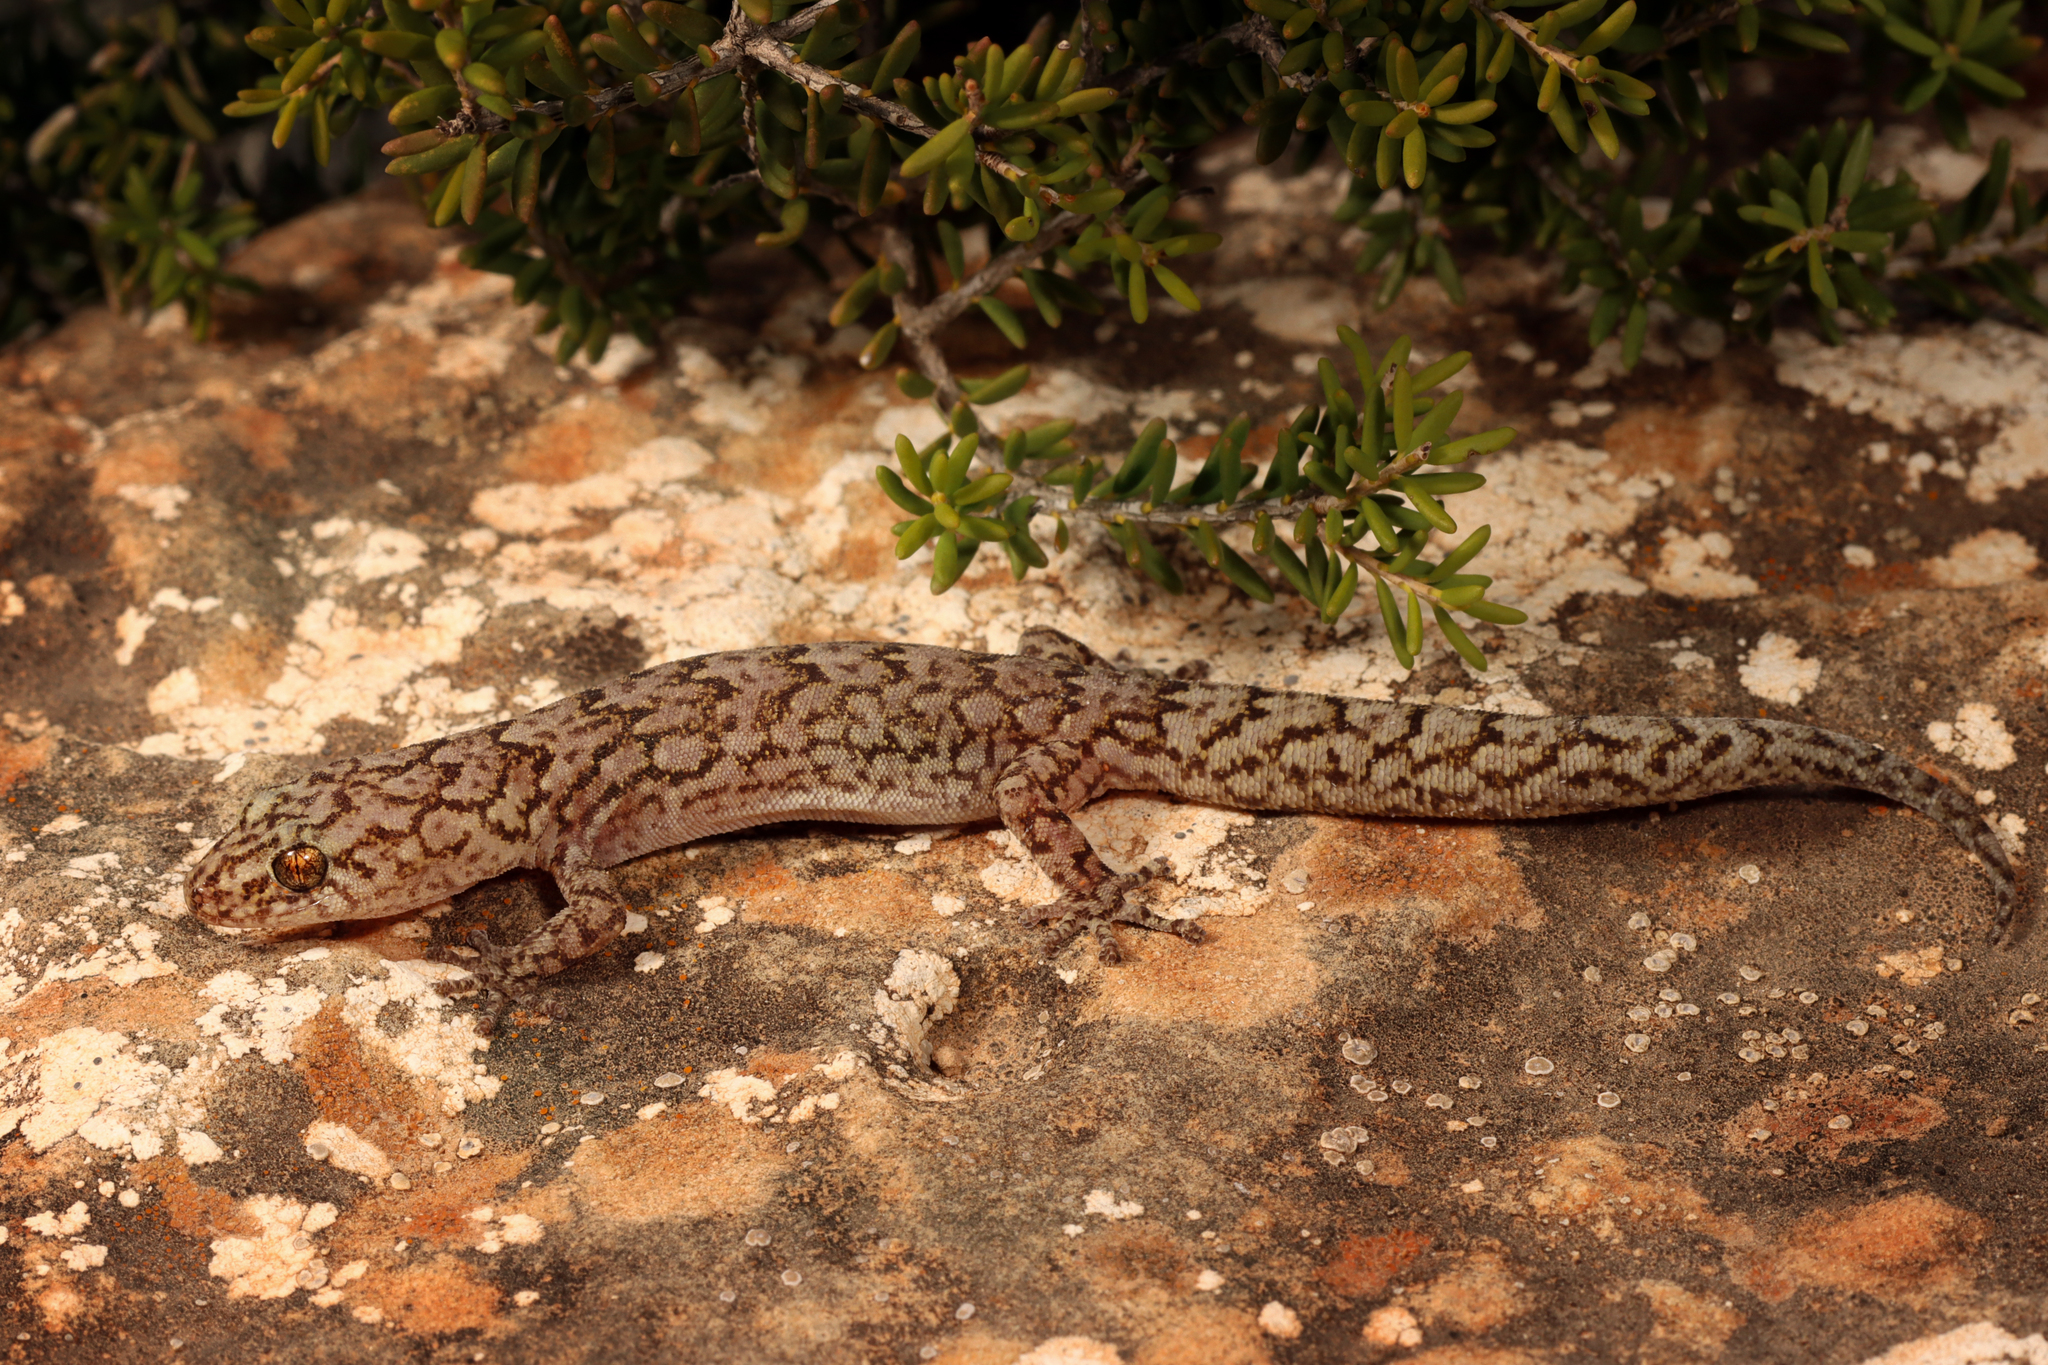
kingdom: Animalia
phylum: Chordata
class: Squamata
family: Gekkonidae
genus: Christinus
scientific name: Christinus alexanderi
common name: Alexander’s marbled gecko
